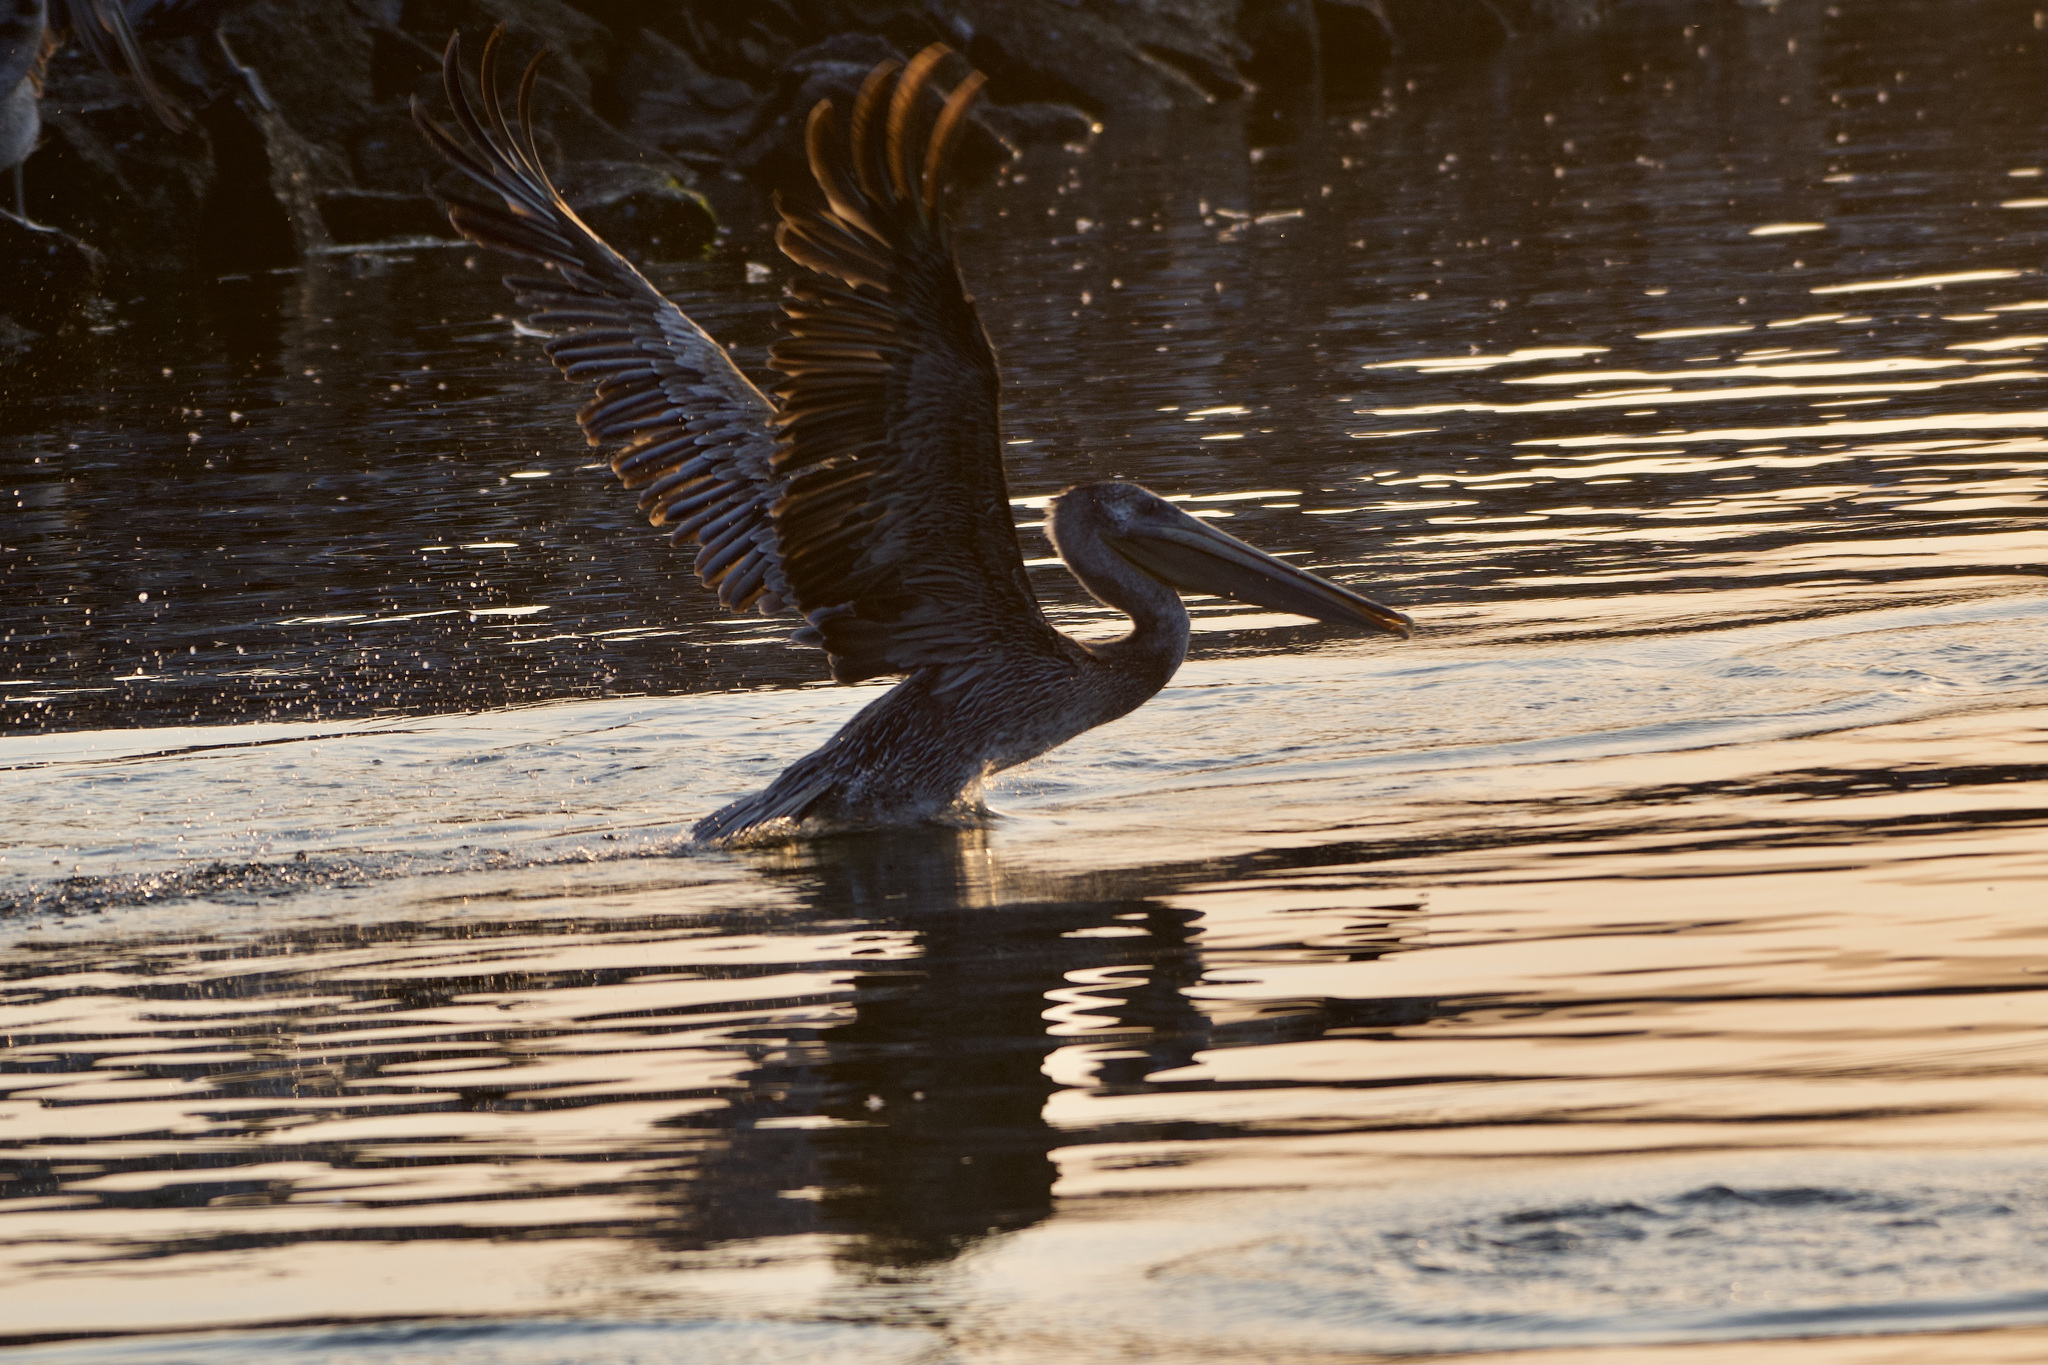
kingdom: Animalia
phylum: Chordata
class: Aves
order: Pelecaniformes
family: Pelecanidae
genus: Pelecanus
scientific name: Pelecanus occidentalis
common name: Brown pelican
